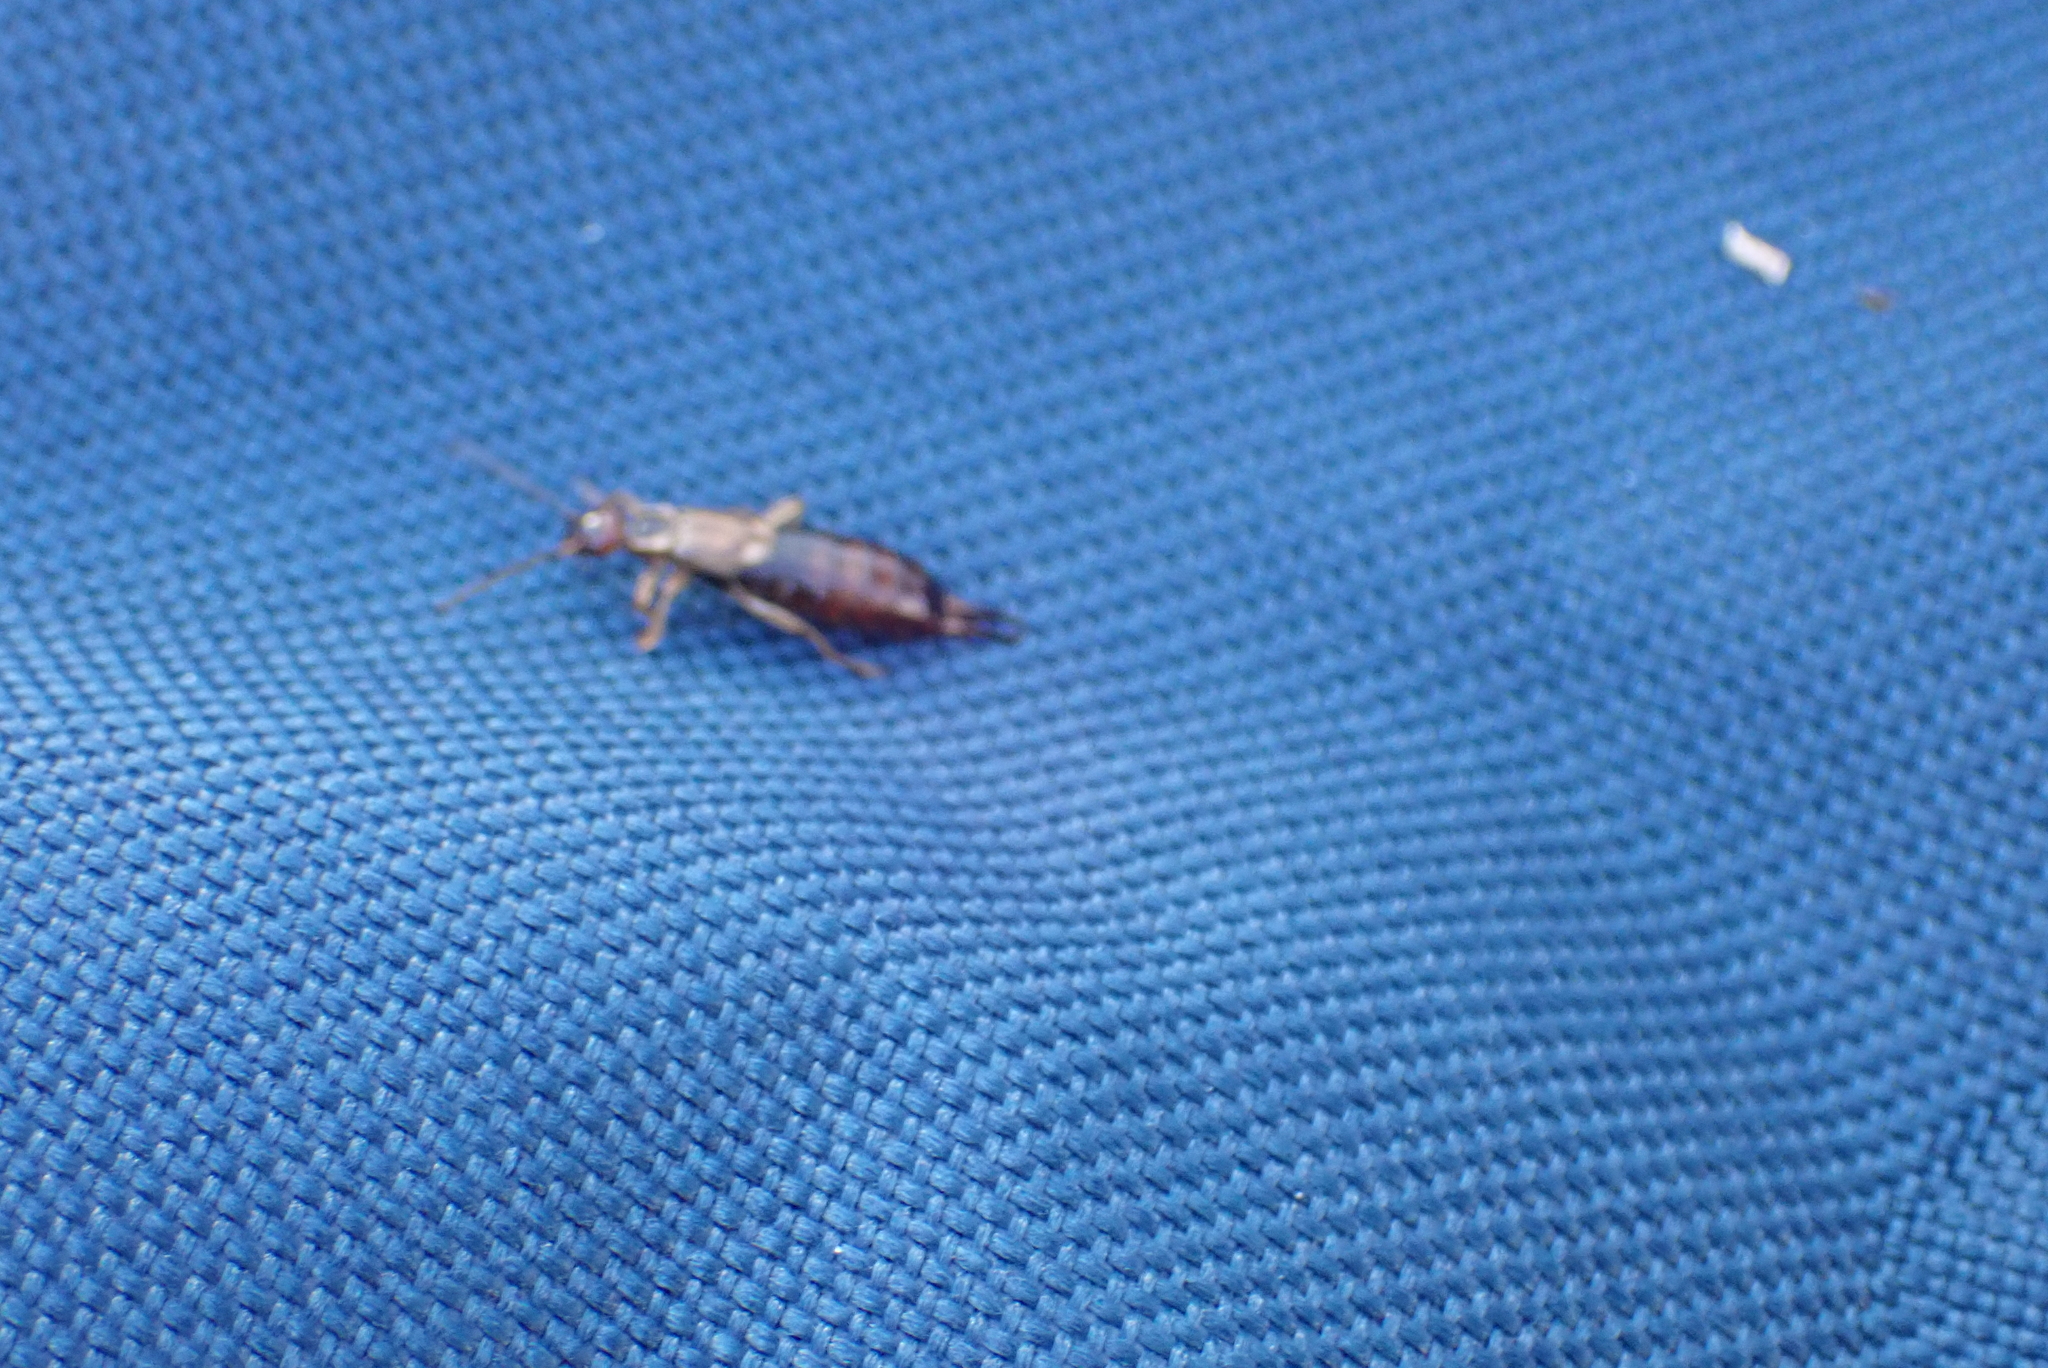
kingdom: Animalia
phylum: Arthropoda
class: Insecta
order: Dermaptera
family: Forficulidae
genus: Forficula
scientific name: Forficula
